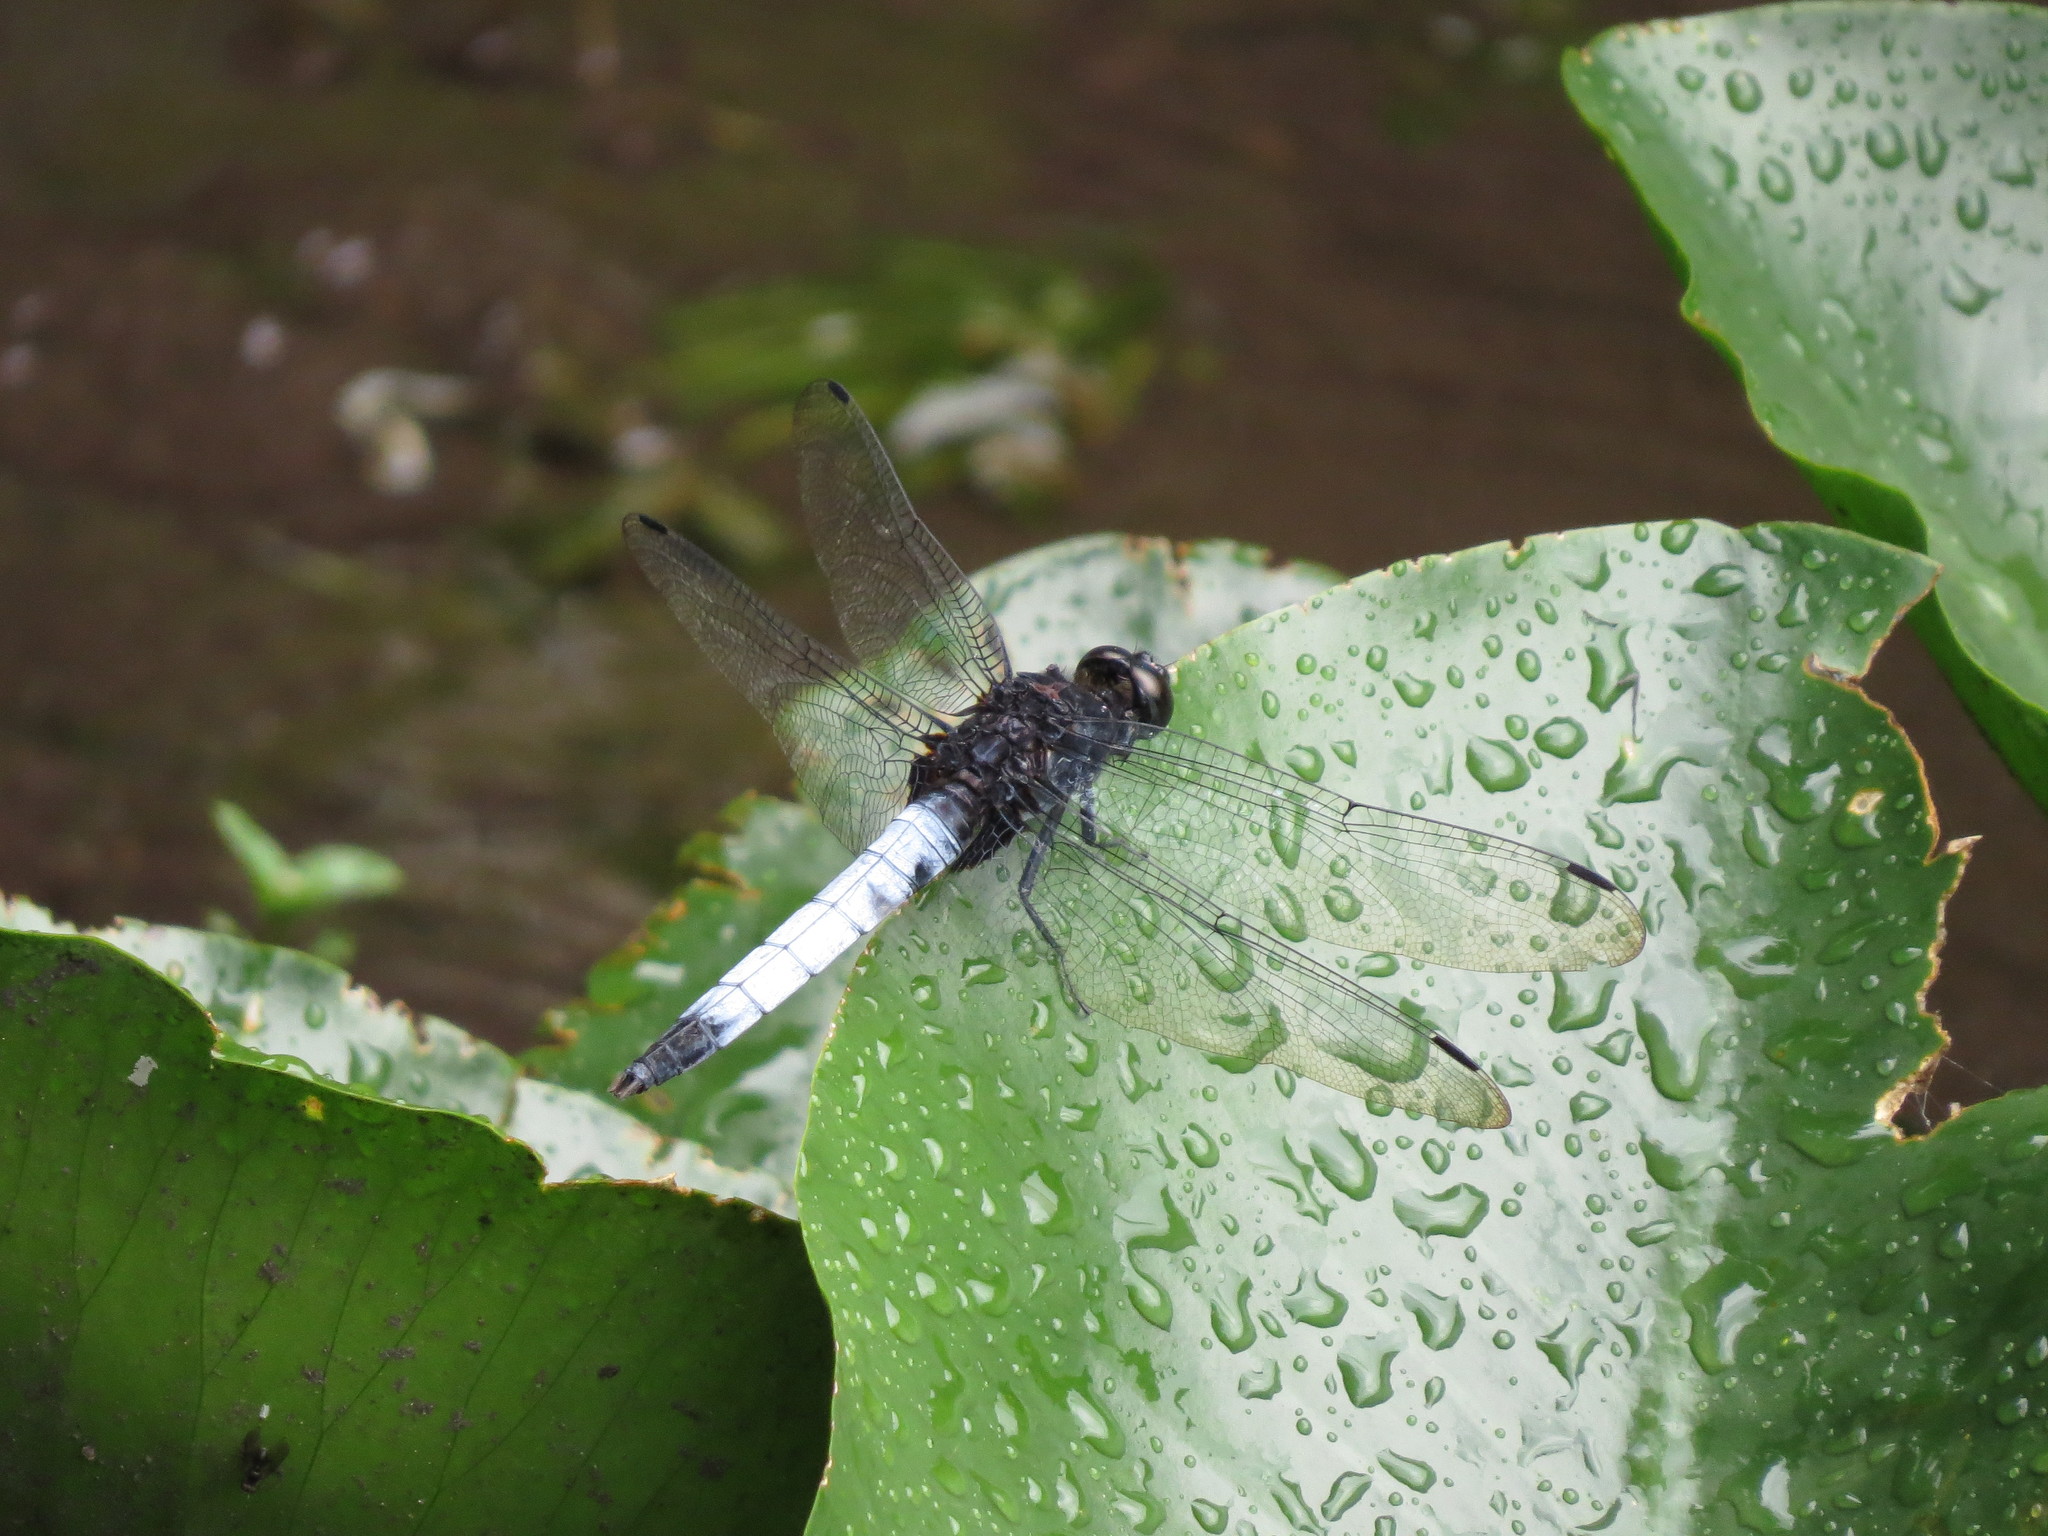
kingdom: Animalia
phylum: Arthropoda
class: Insecta
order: Odonata
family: Libellulidae
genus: Orthetrum
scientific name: Orthetrum triangulare
